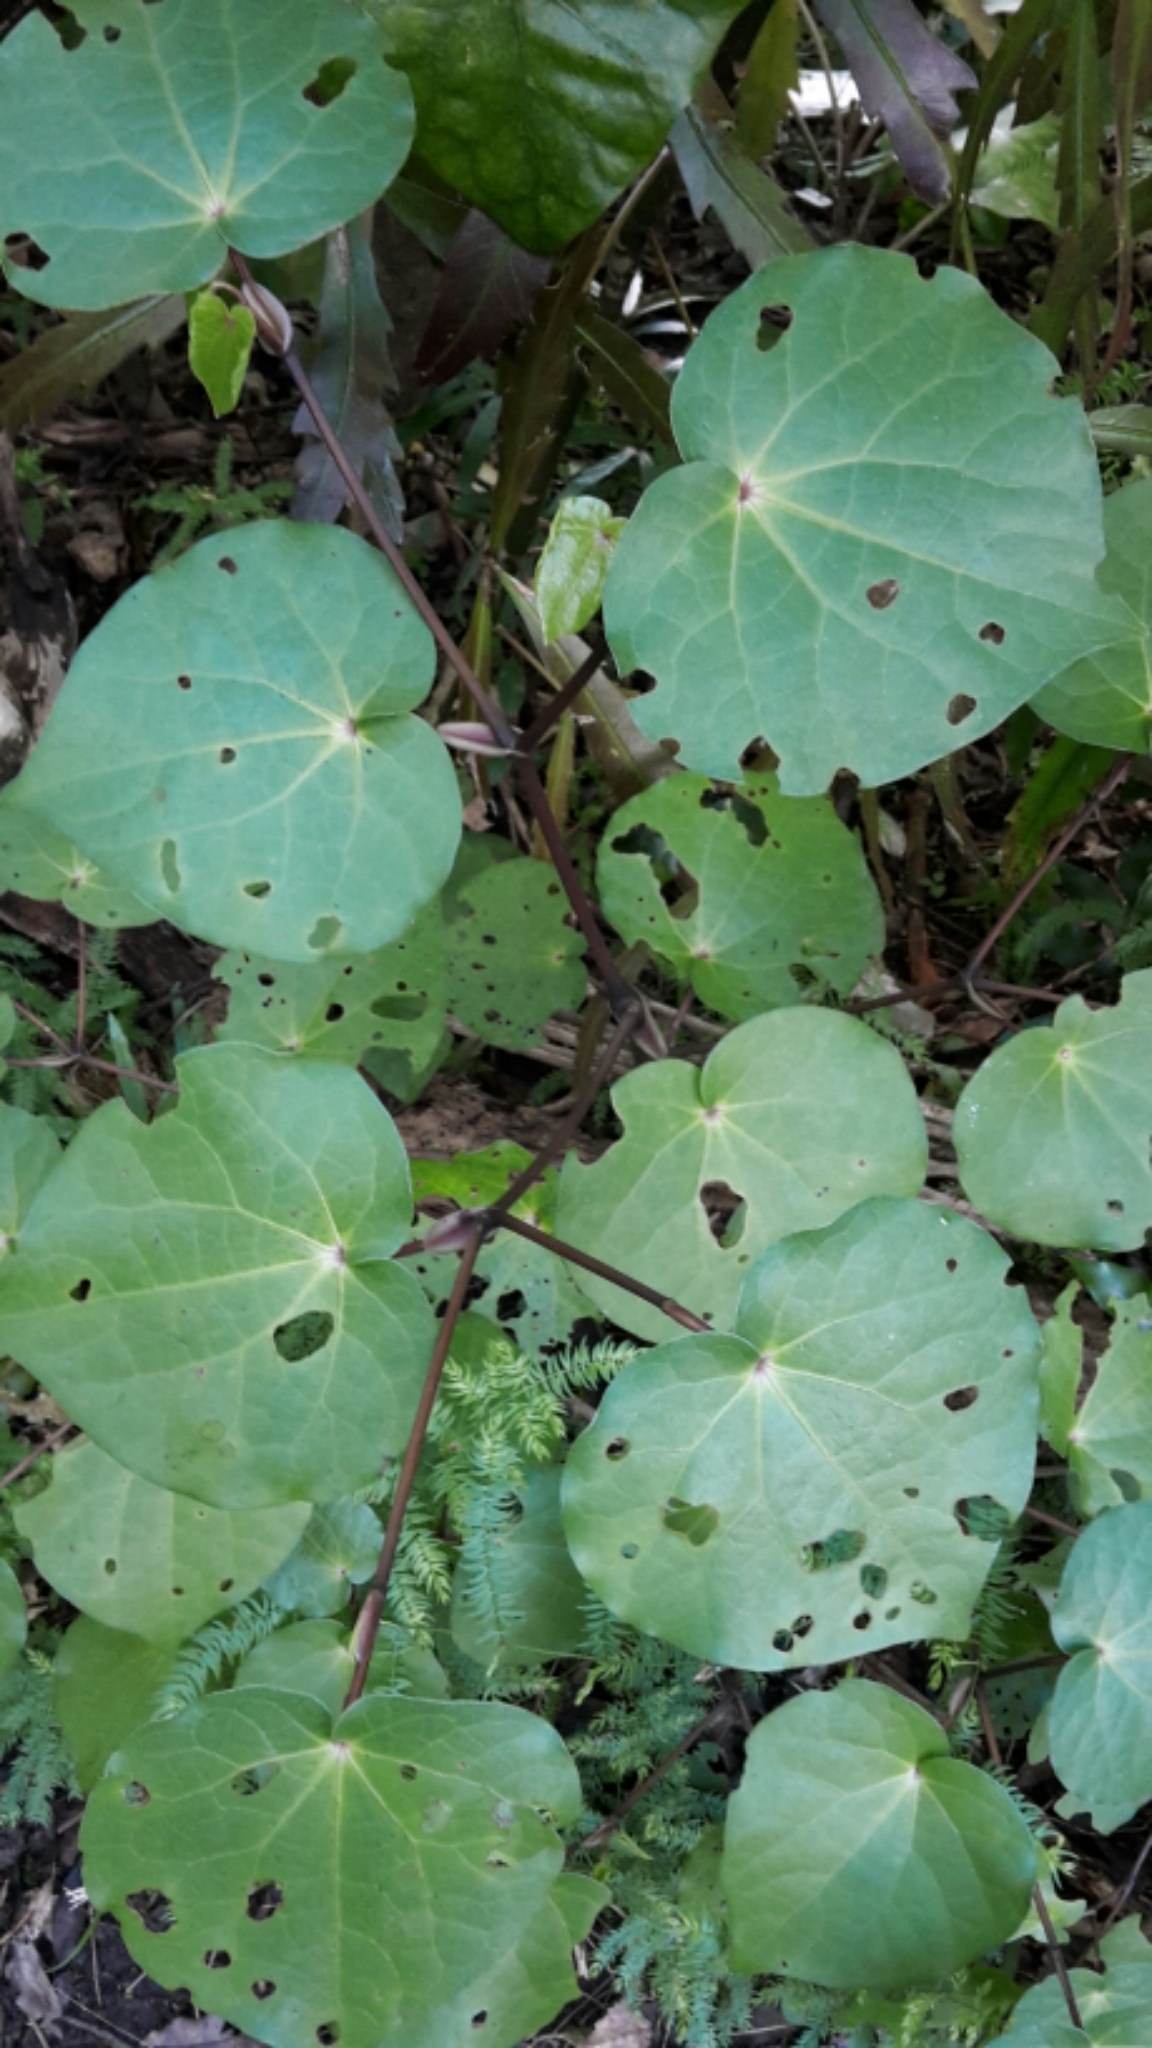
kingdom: Plantae
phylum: Tracheophyta
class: Magnoliopsida
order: Piperales
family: Piperaceae
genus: Macropiper
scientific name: Macropiper excelsum
